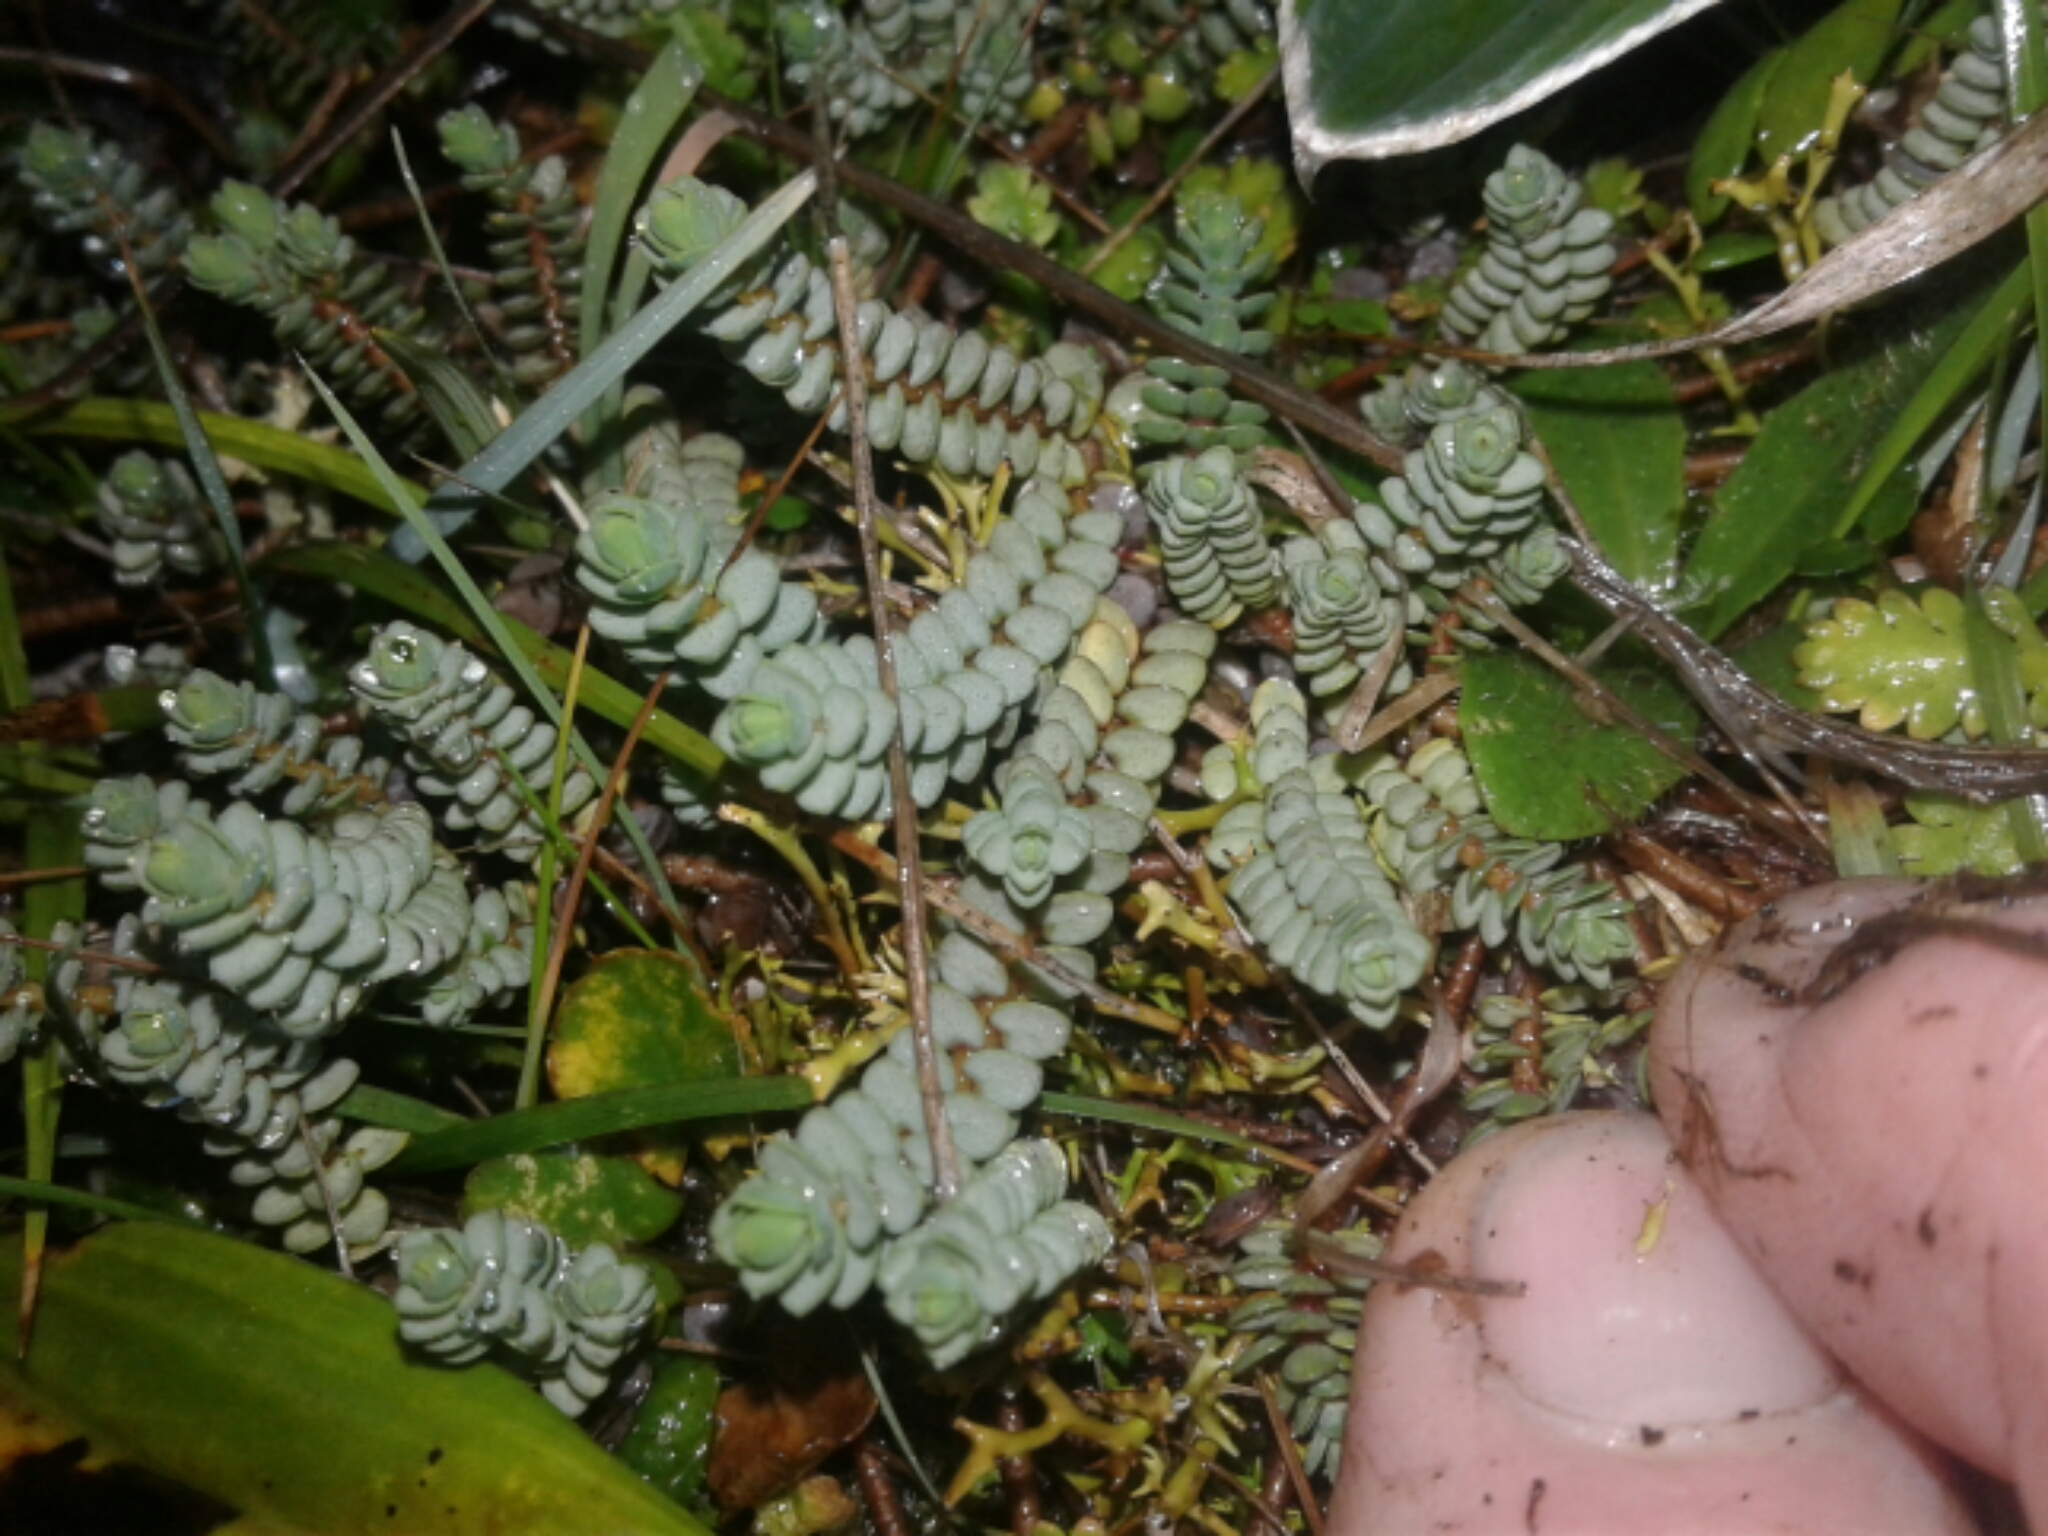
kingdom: Plantae
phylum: Tracheophyta
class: Magnoliopsida
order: Malvales
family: Thymelaeaceae
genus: Pimelea
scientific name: Pimelea carnosa
